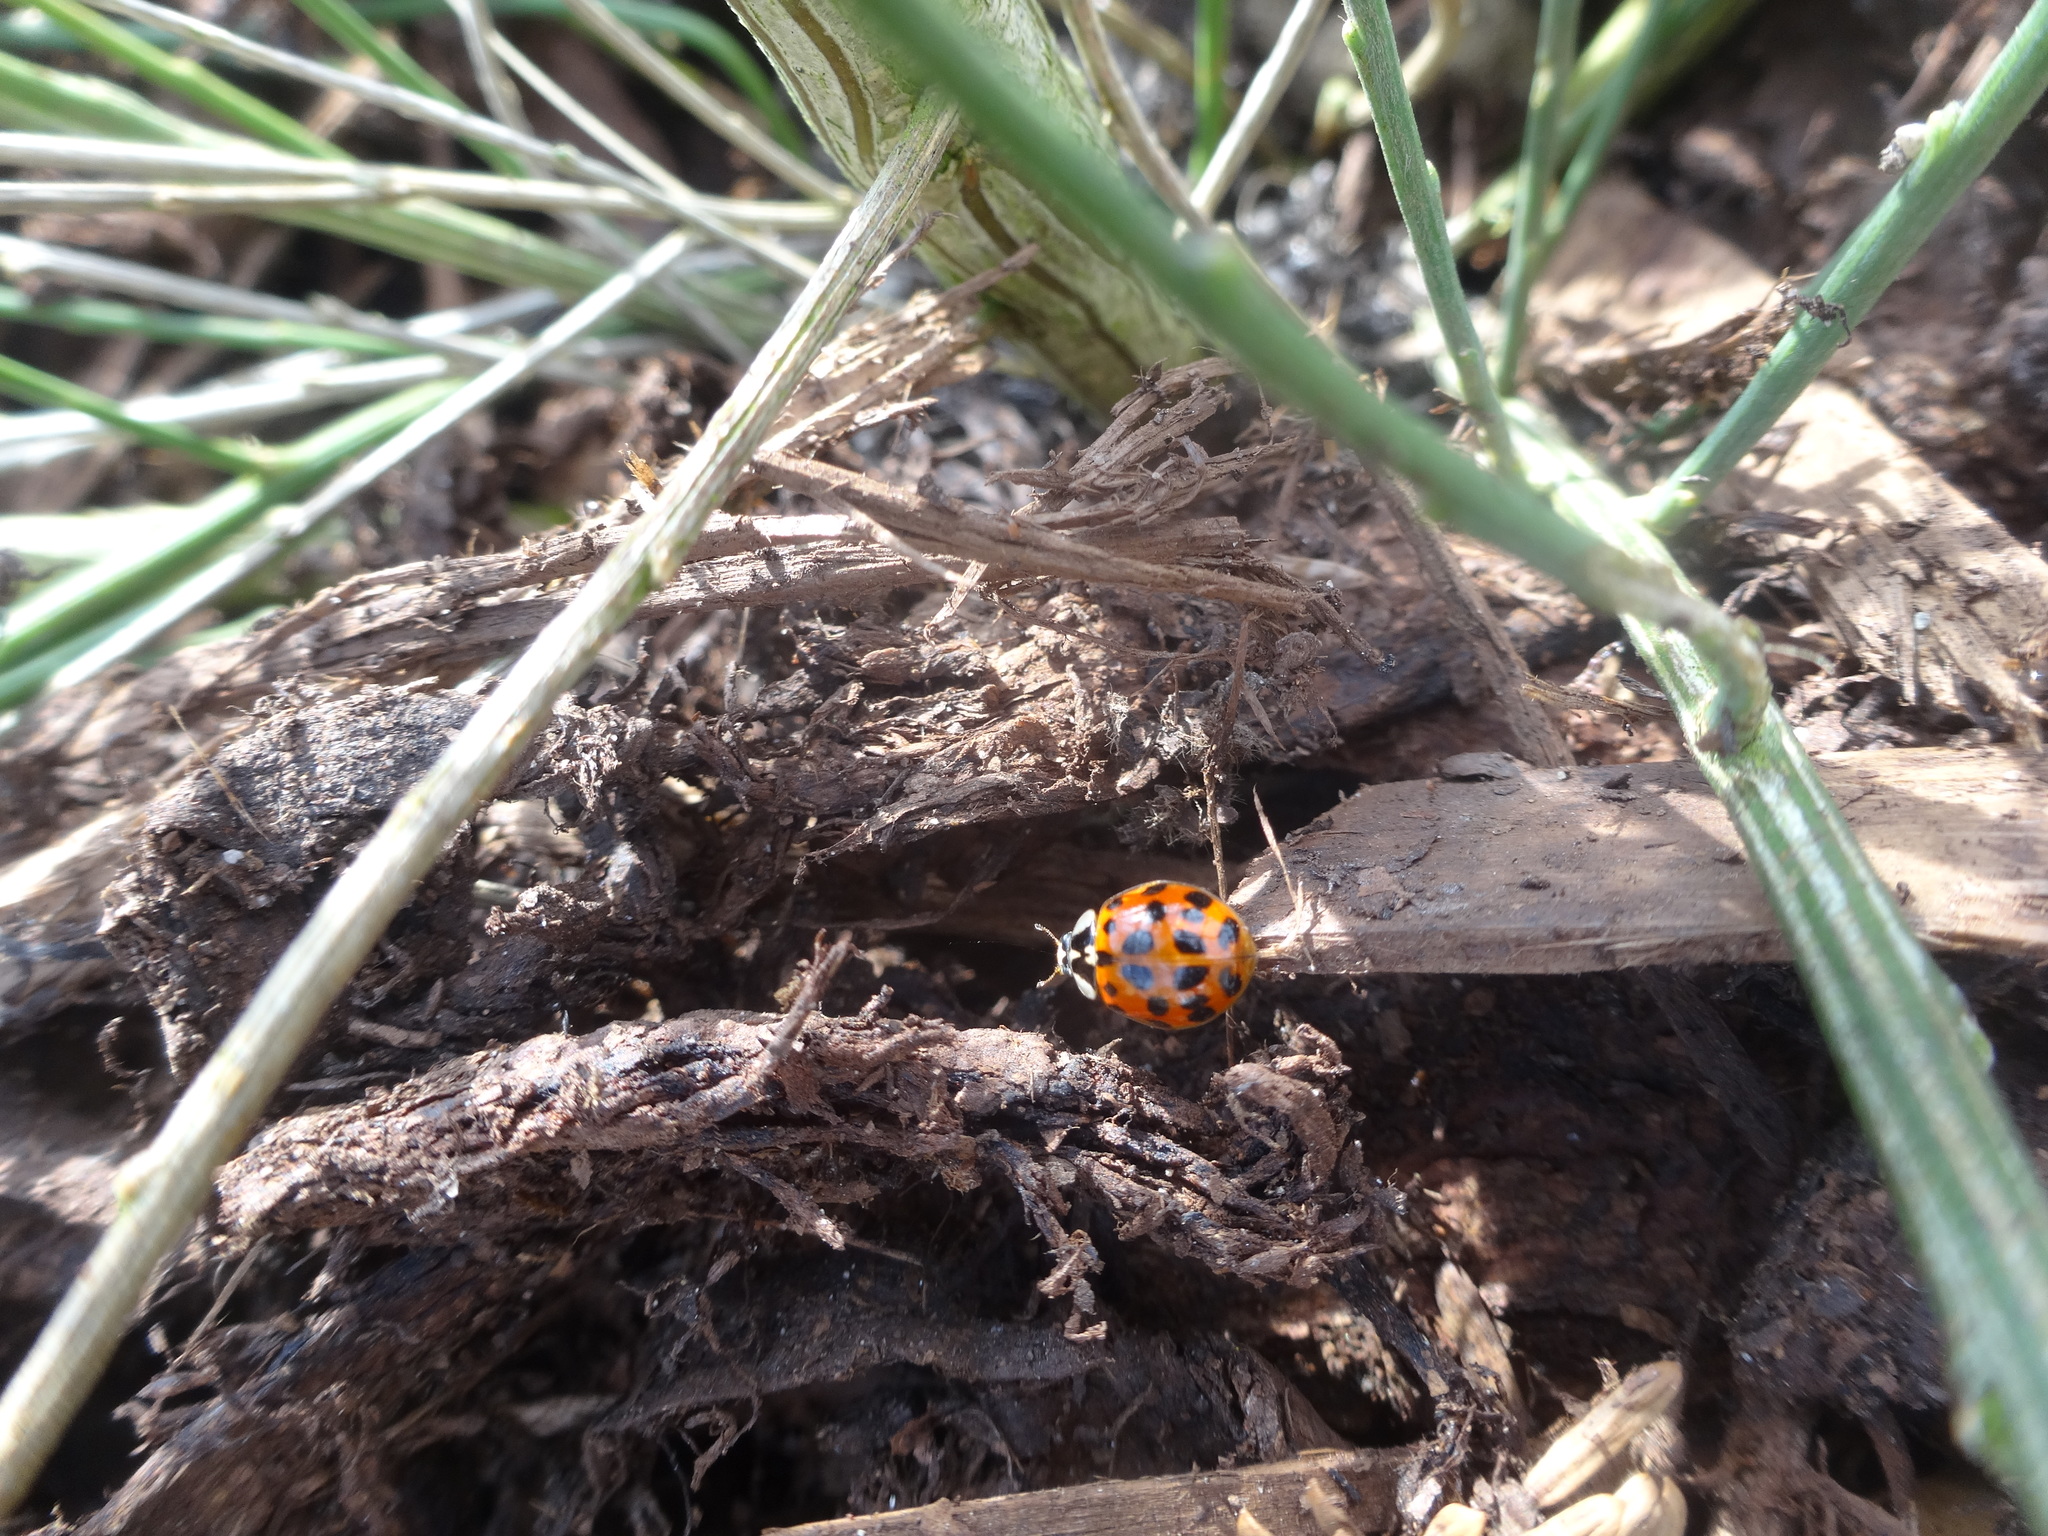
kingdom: Animalia
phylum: Arthropoda
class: Insecta
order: Coleoptera
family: Coccinellidae
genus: Harmonia
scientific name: Harmonia axyridis
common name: Harlequin ladybird
